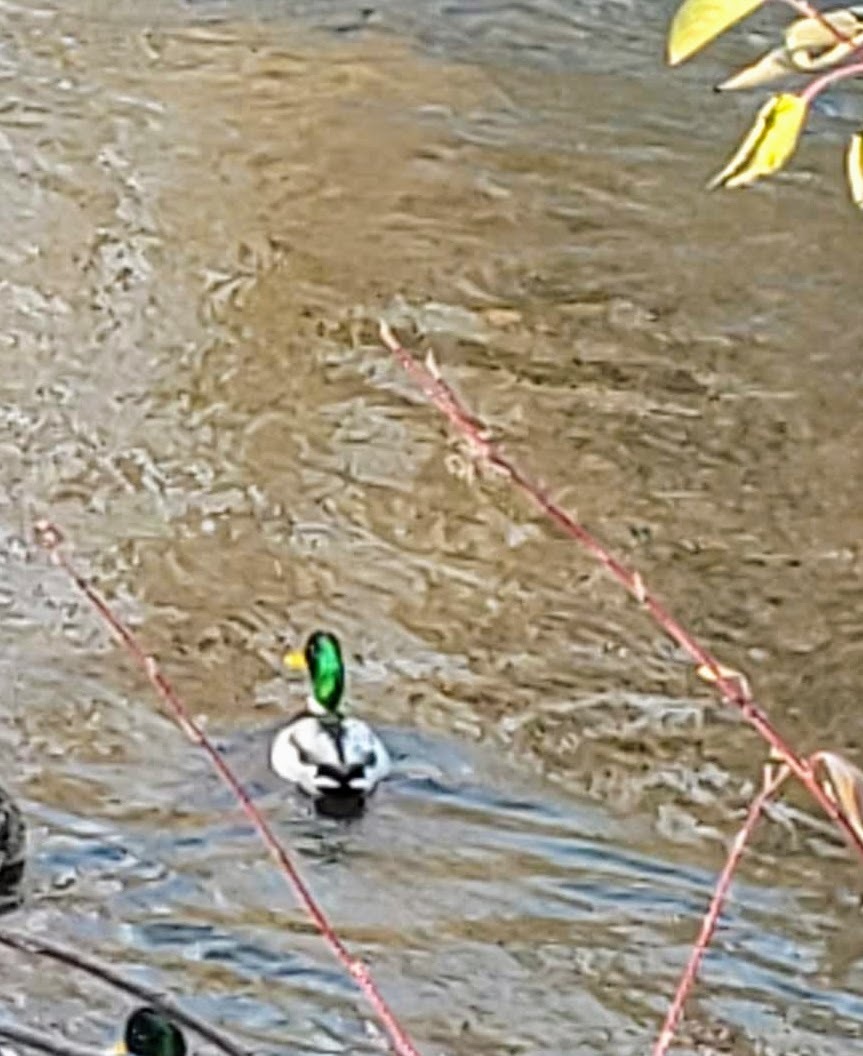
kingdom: Animalia
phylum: Chordata
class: Aves
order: Anseriformes
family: Anatidae
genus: Anas
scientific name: Anas platyrhynchos
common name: Mallard
